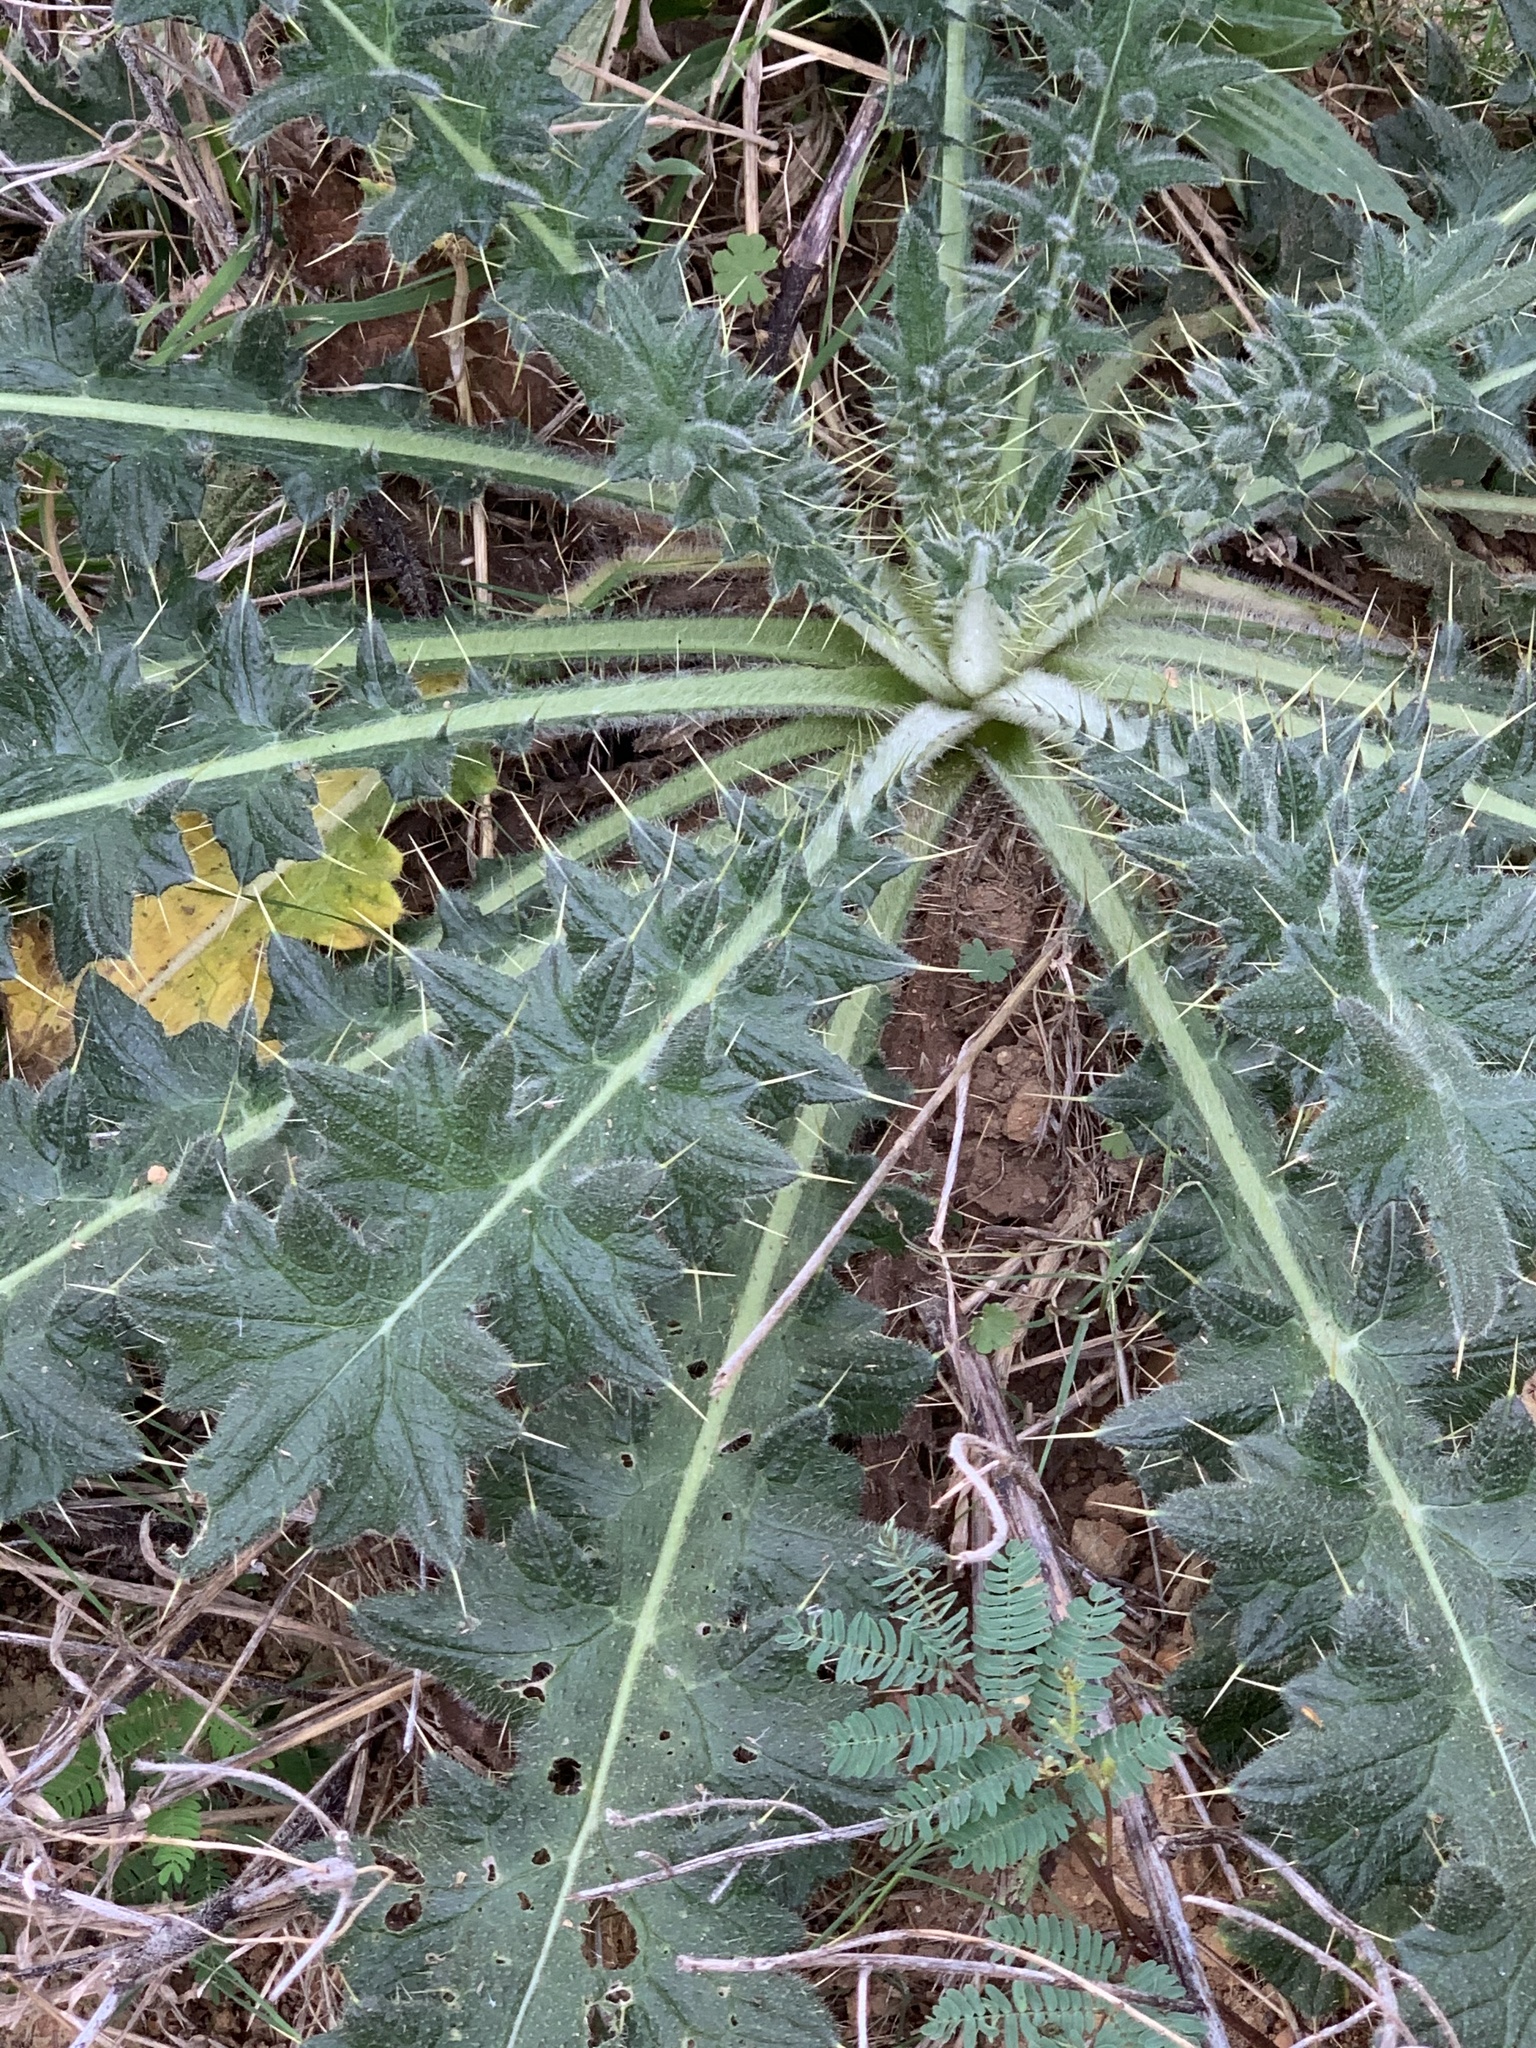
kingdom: Plantae
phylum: Tracheophyta
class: Magnoliopsida
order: Asterales
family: Asteraceae
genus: Cirsium
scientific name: Cirsium vulgare
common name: Bull thistle
